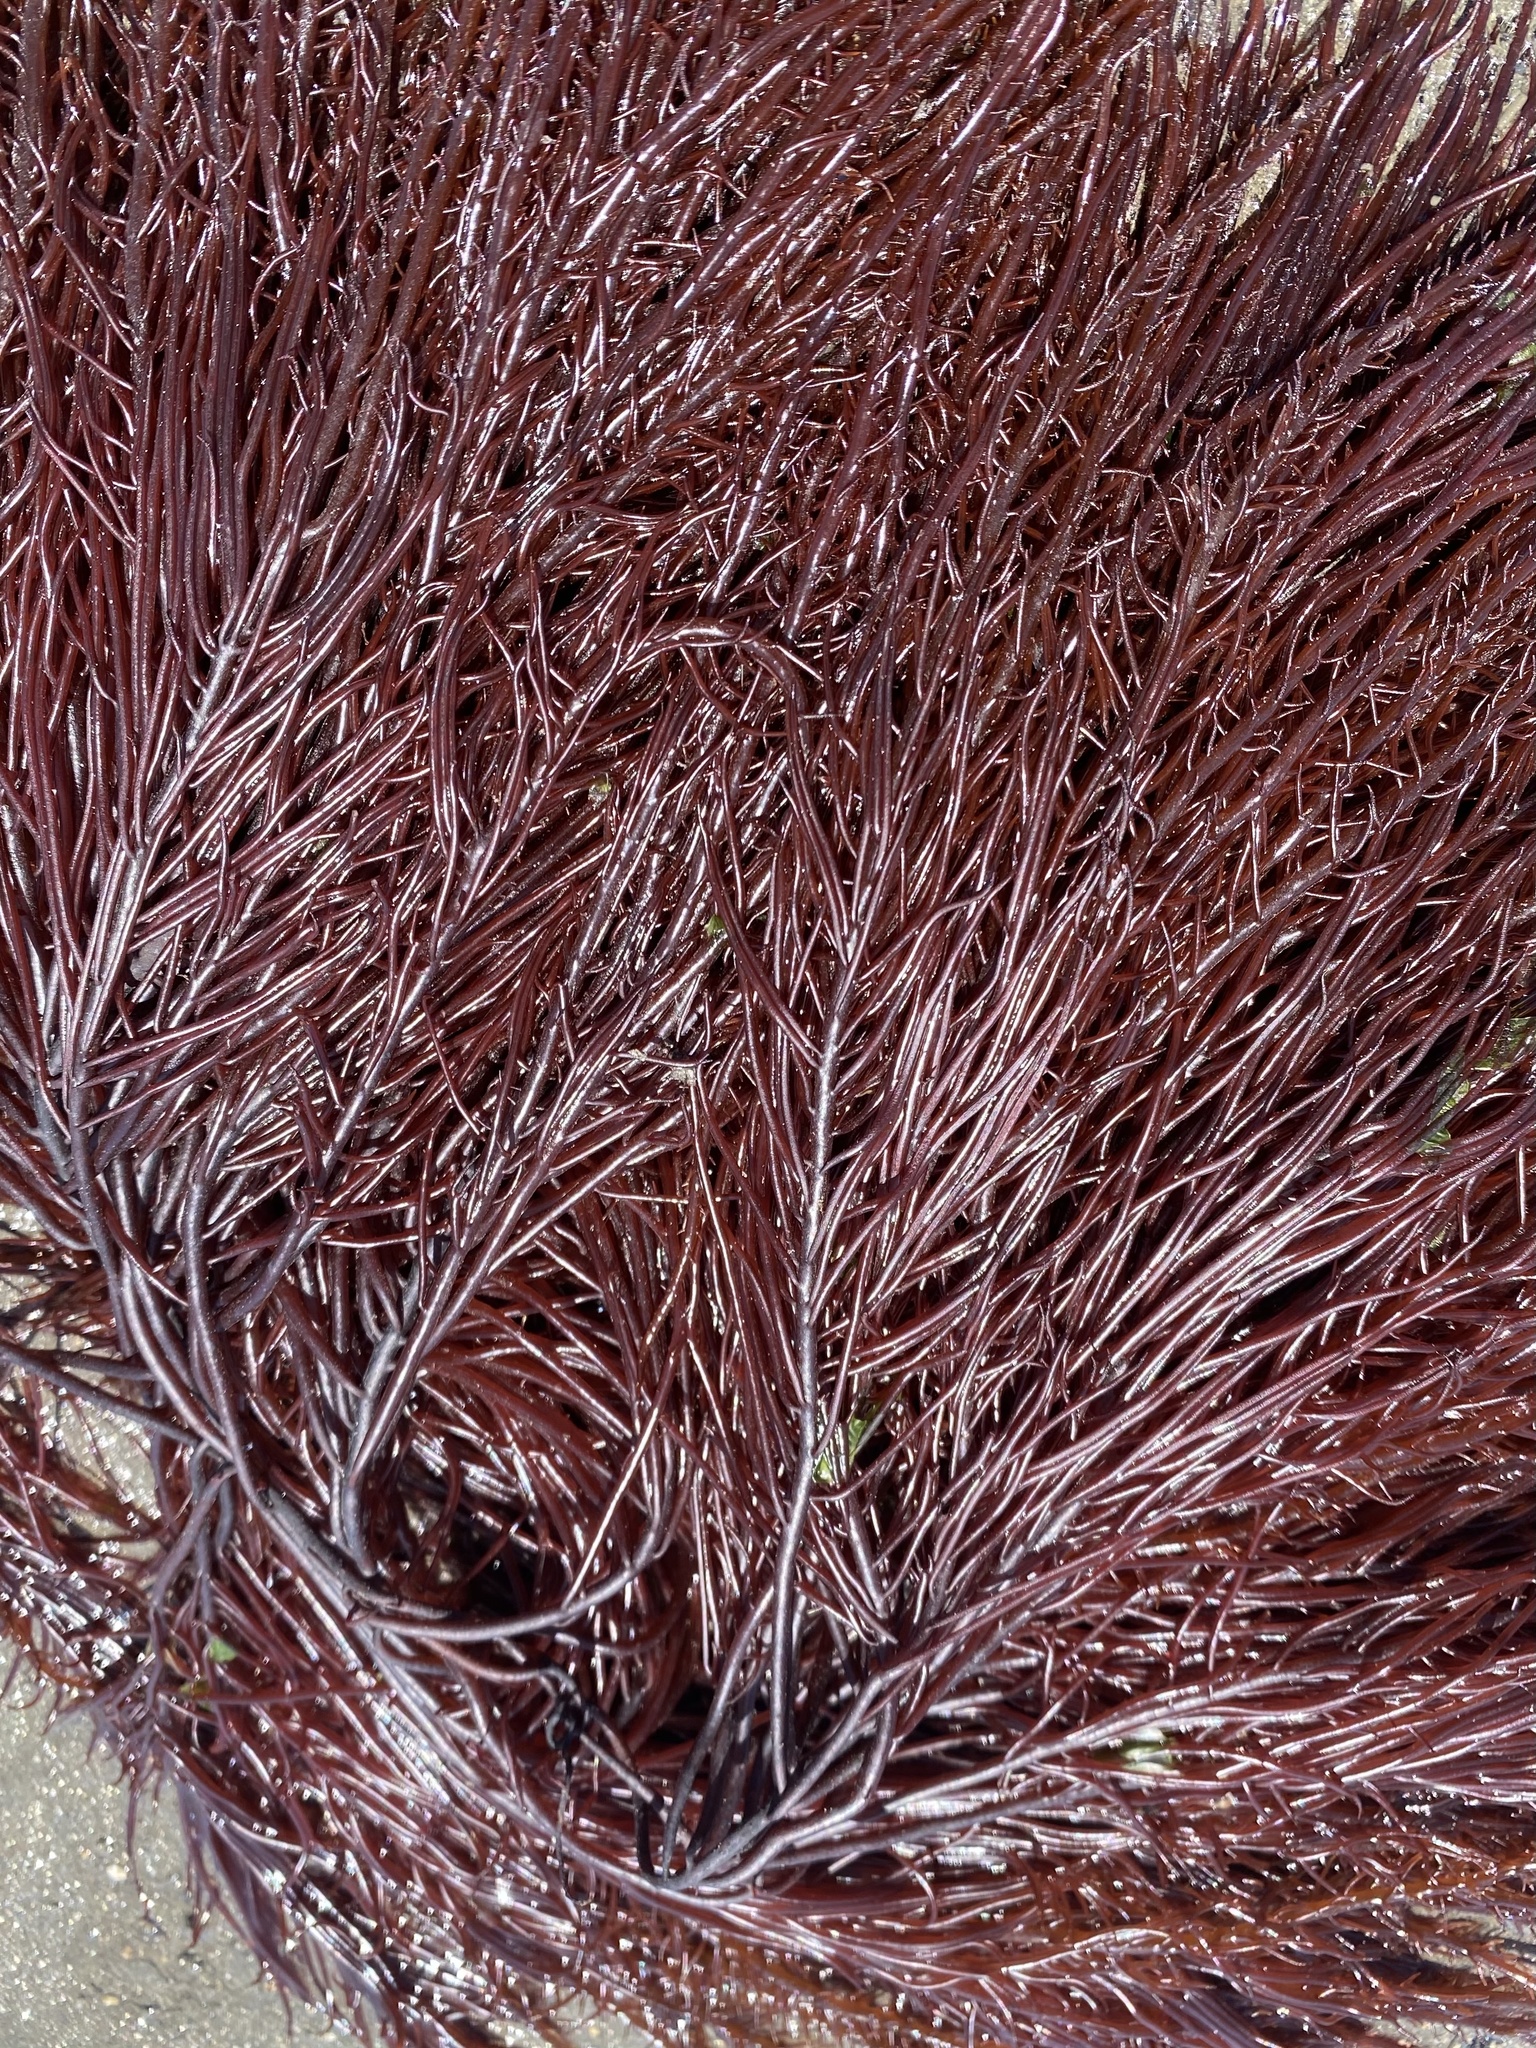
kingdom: Plantae
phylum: Rhodophyta
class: Florideophyceae
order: Gigartinales
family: Solieriaceae
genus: Sarcodiotheca
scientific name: Sarcodiotheca gaudichaudii
